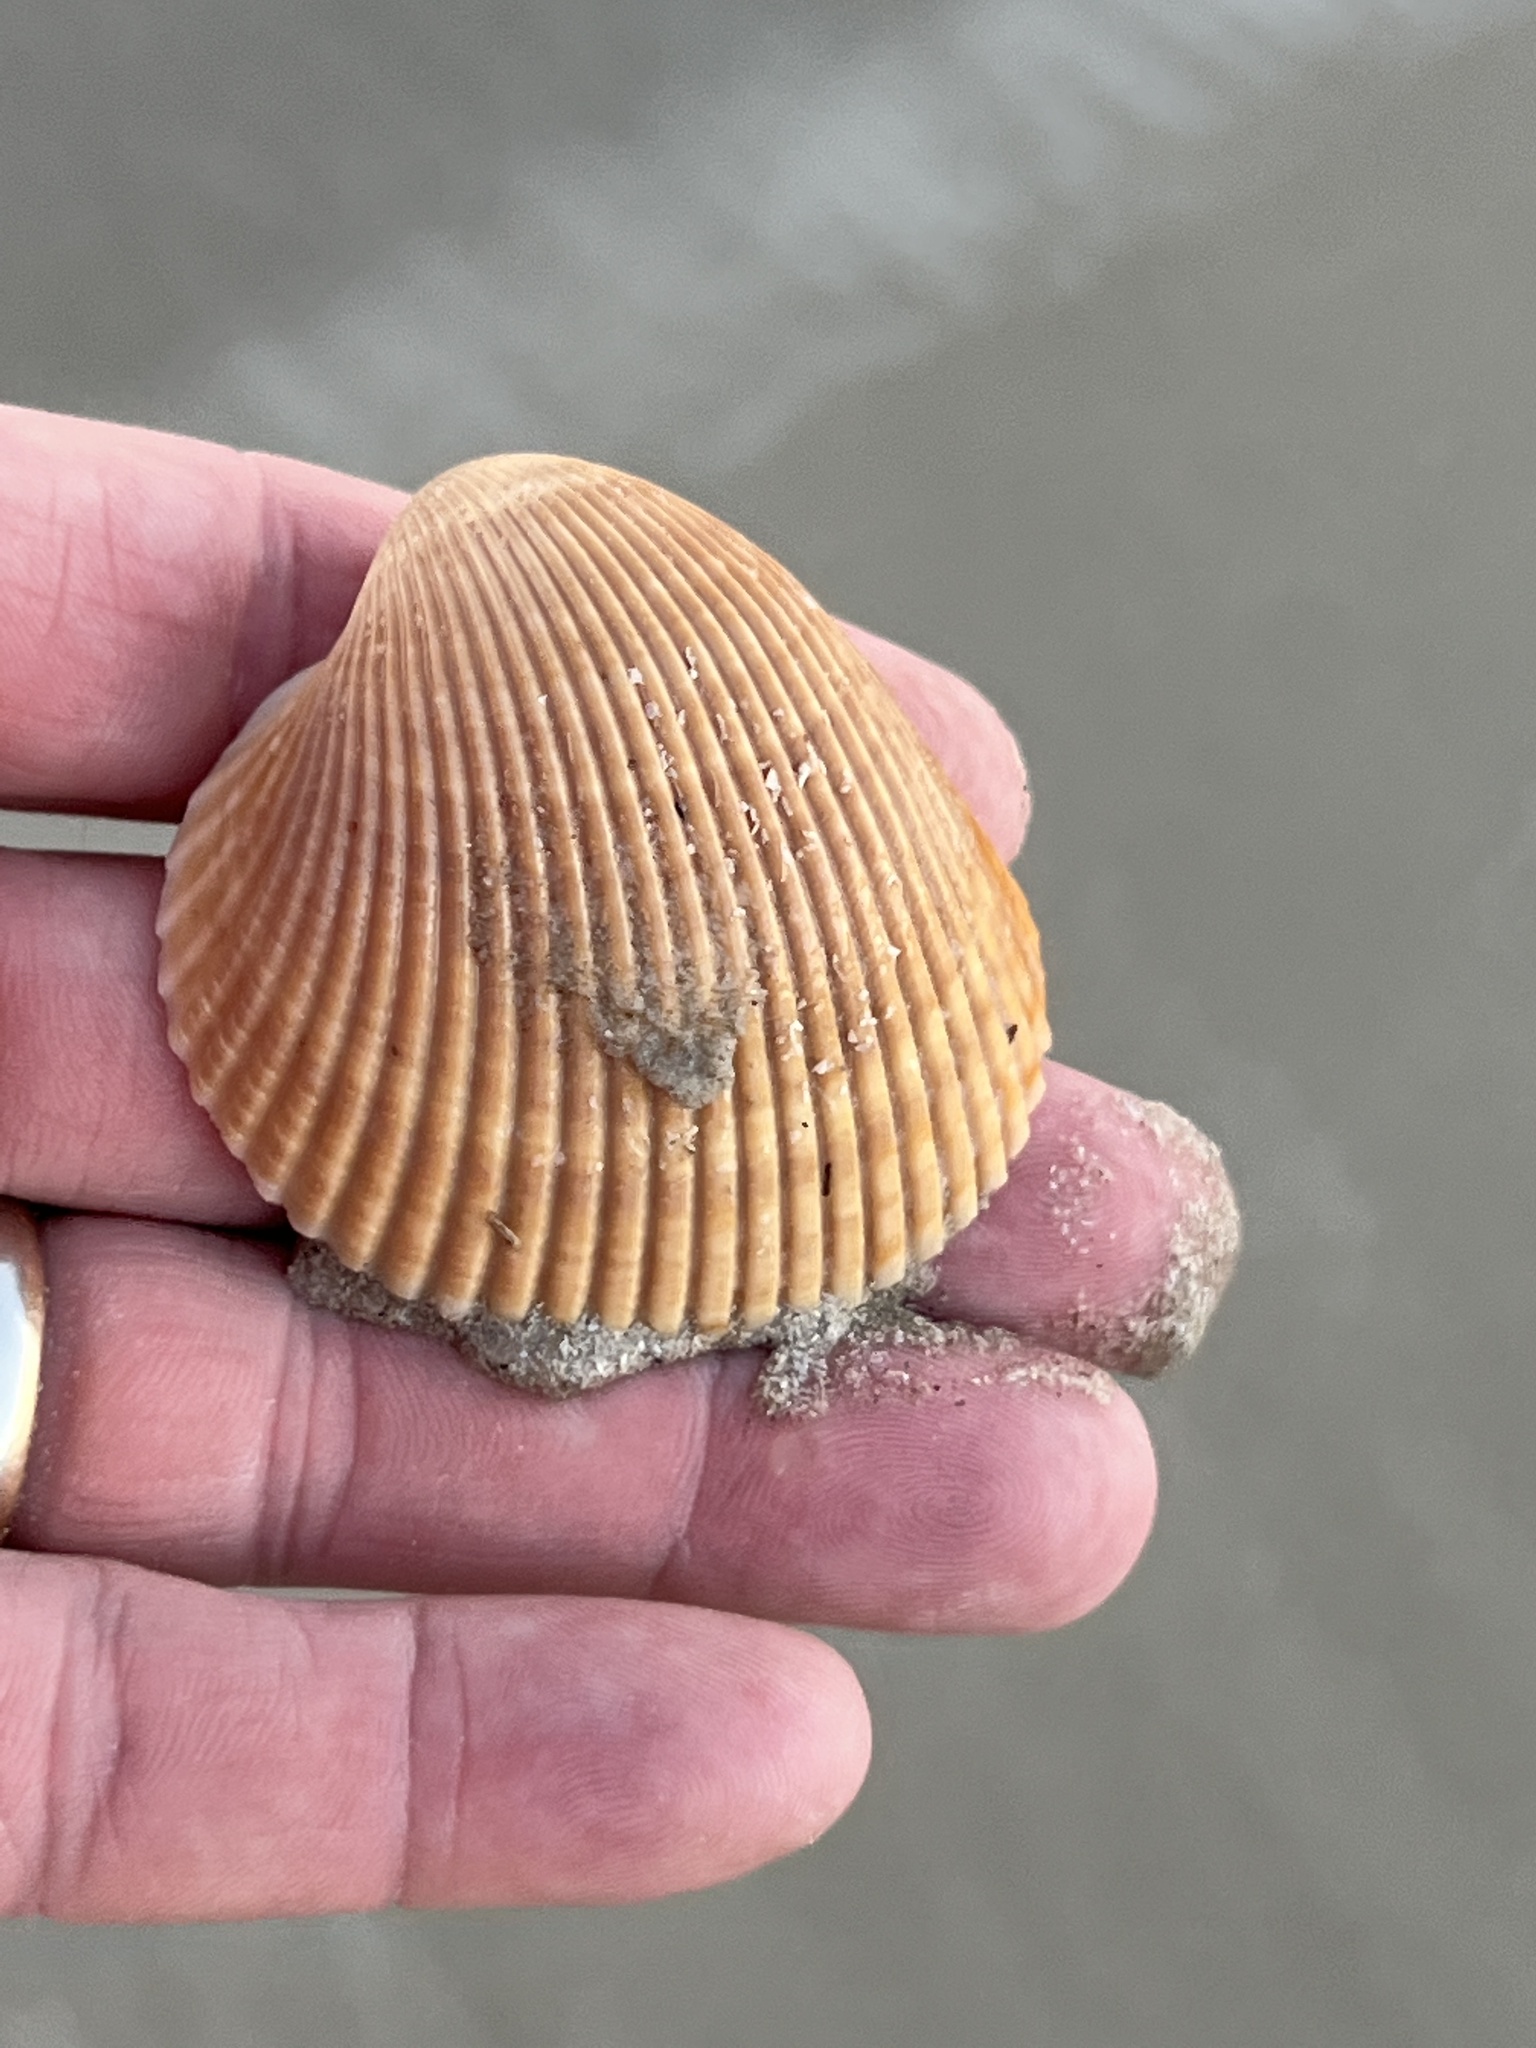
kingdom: Animalia
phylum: Mollusca
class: Bivalvia
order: Cardiida
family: Cardiidae
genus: Dinocardium
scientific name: Dinocardium robustum
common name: Atlantic giant cockle
